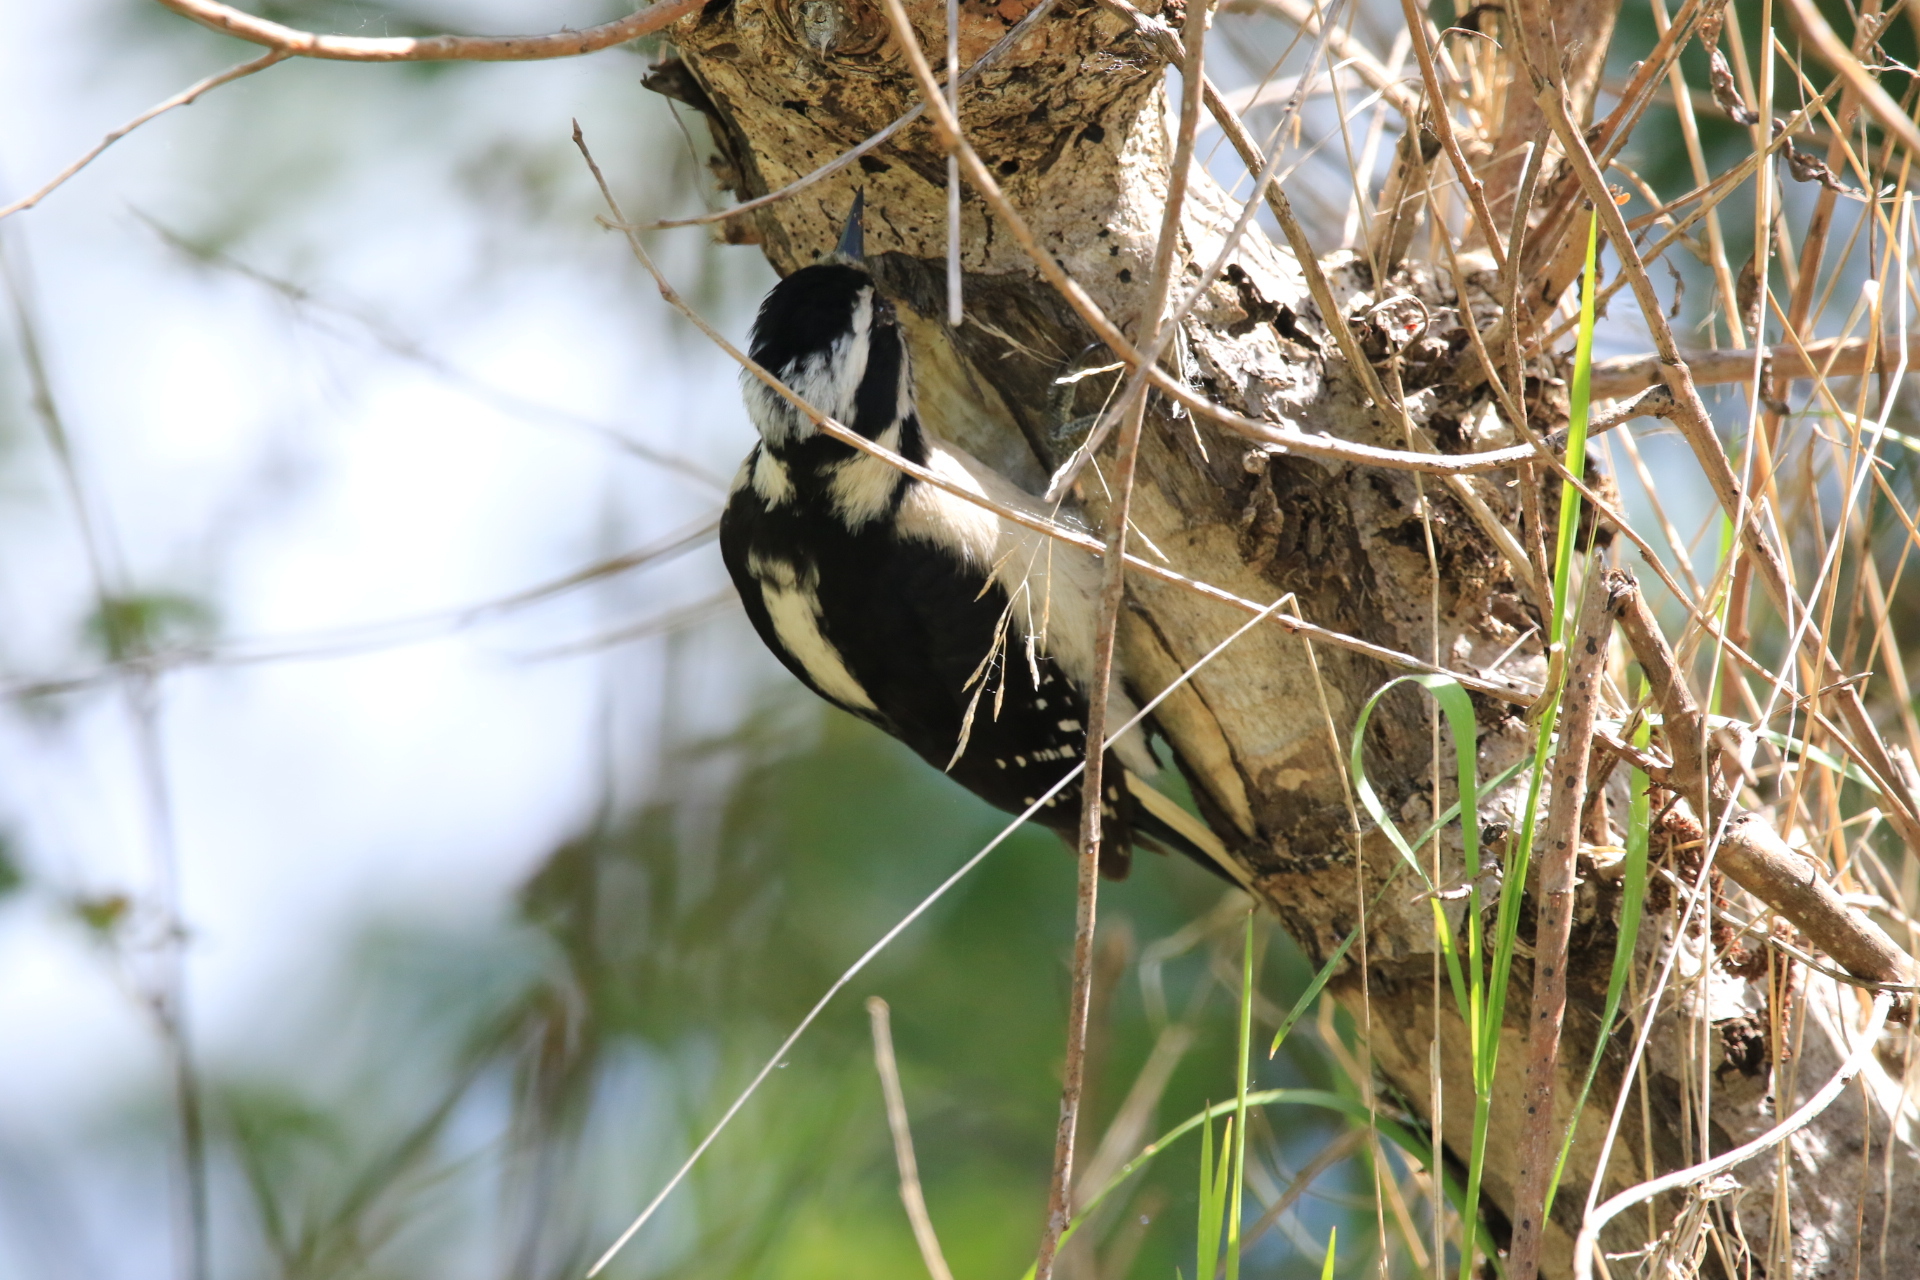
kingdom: Animalia
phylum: Chordata
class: Aves
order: Piciformes
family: Picidae
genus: Dryobates
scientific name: Dryobates pubescens
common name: Downy woodpecker
